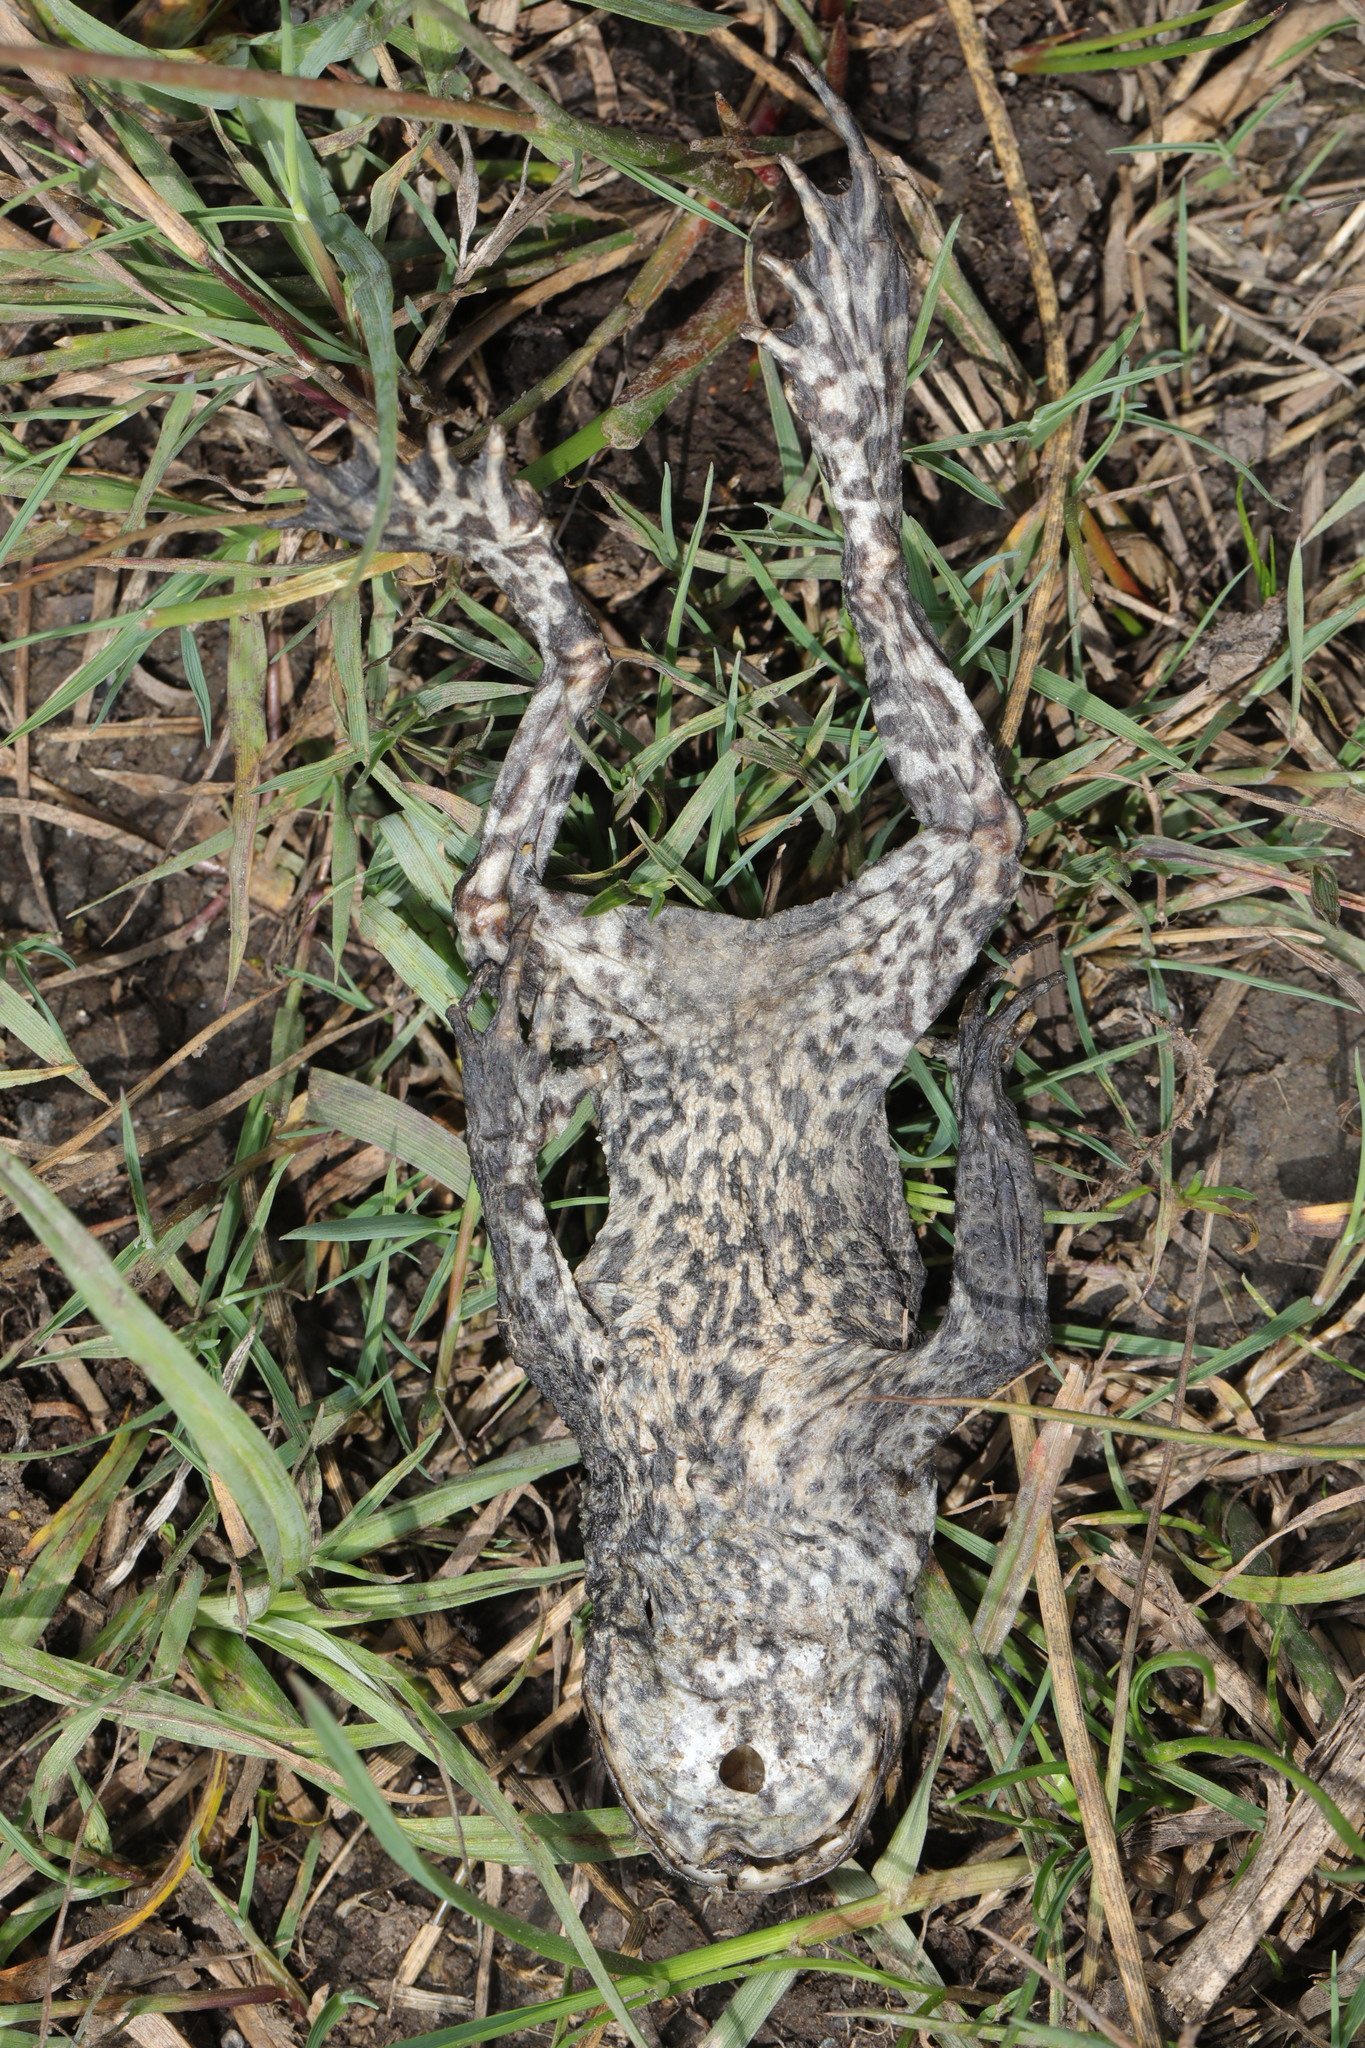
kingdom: Animalia
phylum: Chordata
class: Amphibia
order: Anura
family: Bufonidae
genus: Bufo
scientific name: Bufo bufo
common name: Common toad
